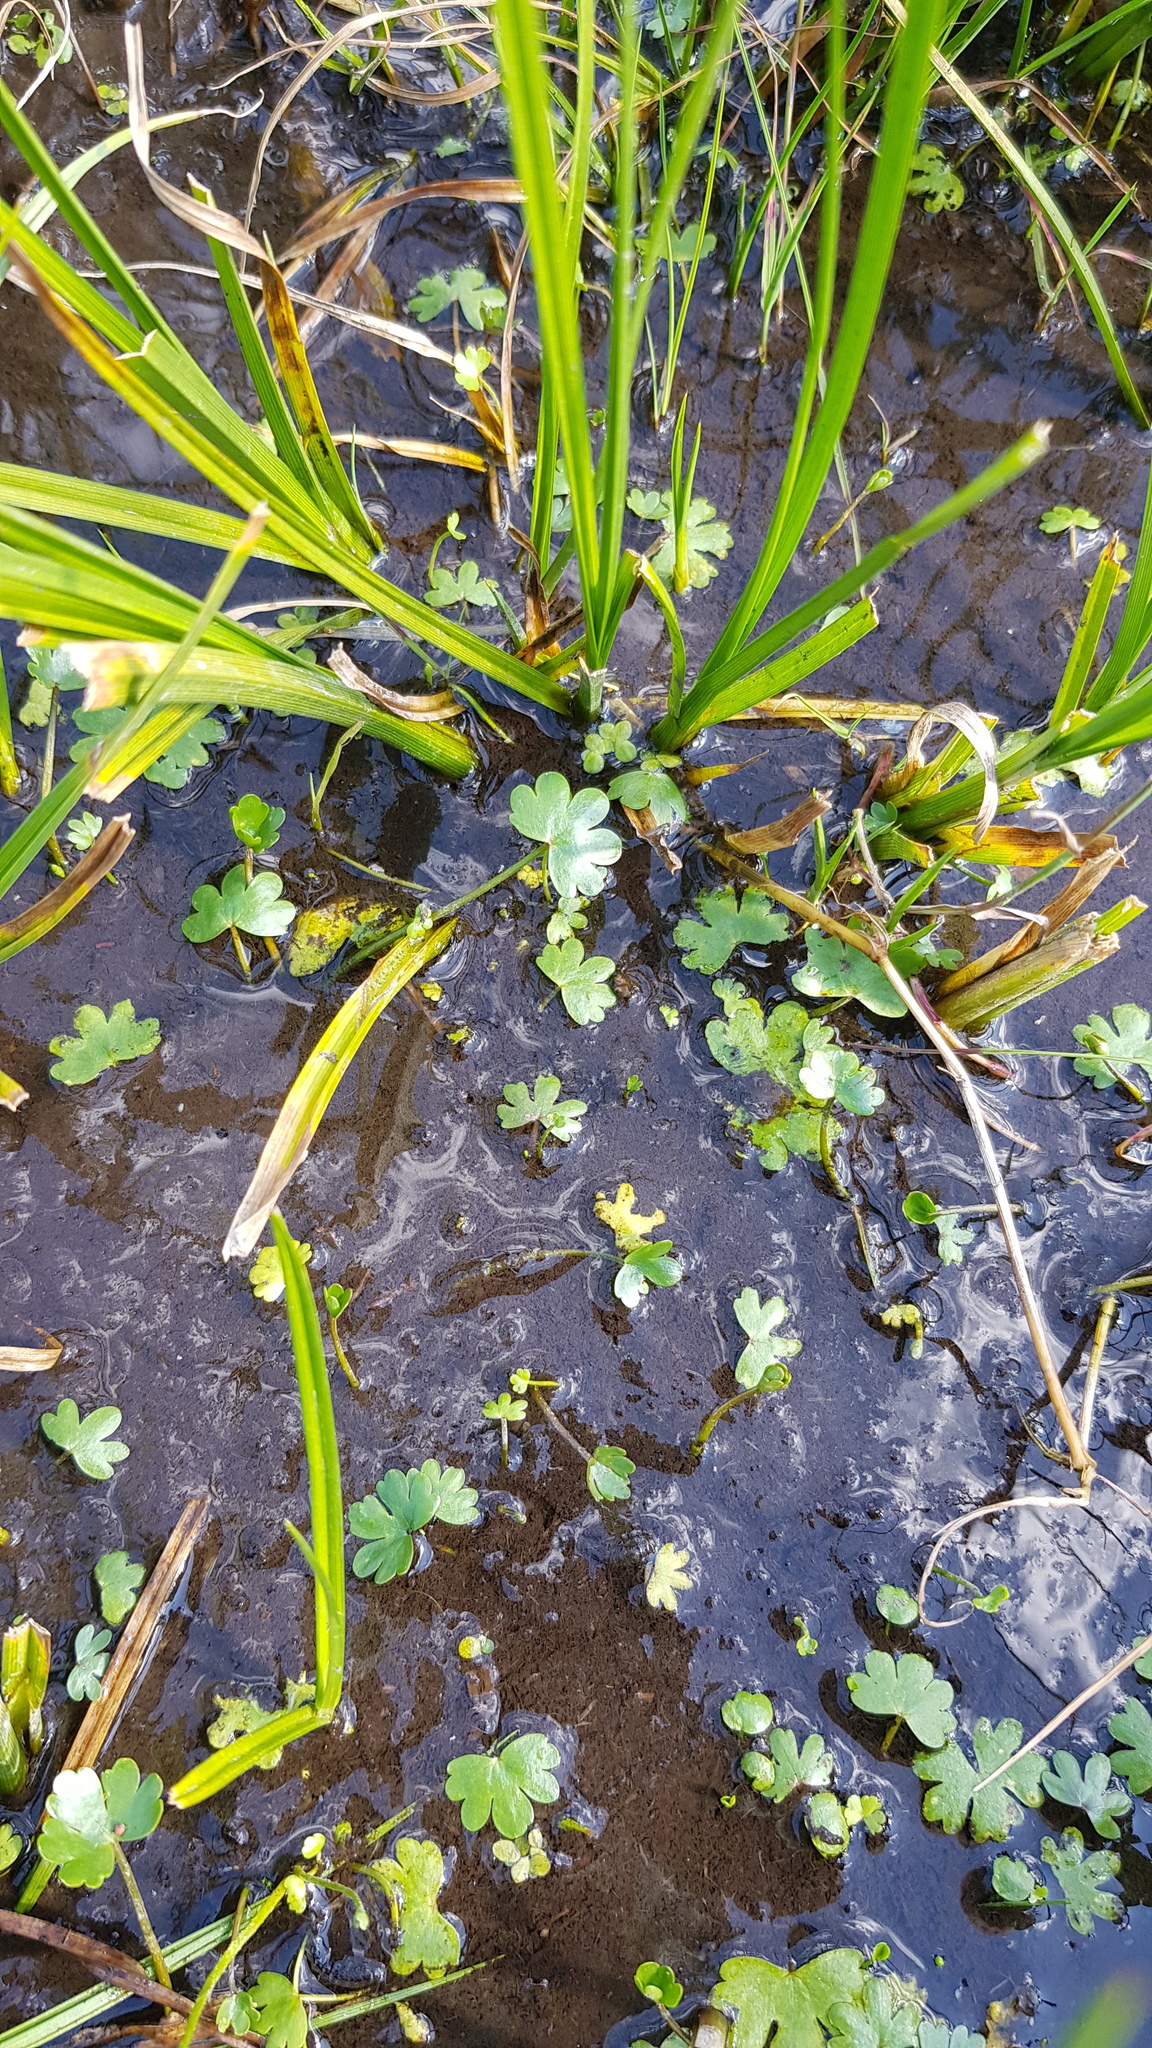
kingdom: Plantae
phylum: Tracheophyta
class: Magnoliopsida
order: Ranunculales
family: Ranunculaceae
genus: Ranunculus
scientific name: Ranunculus gmelinii
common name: Gmelin's buttercup
